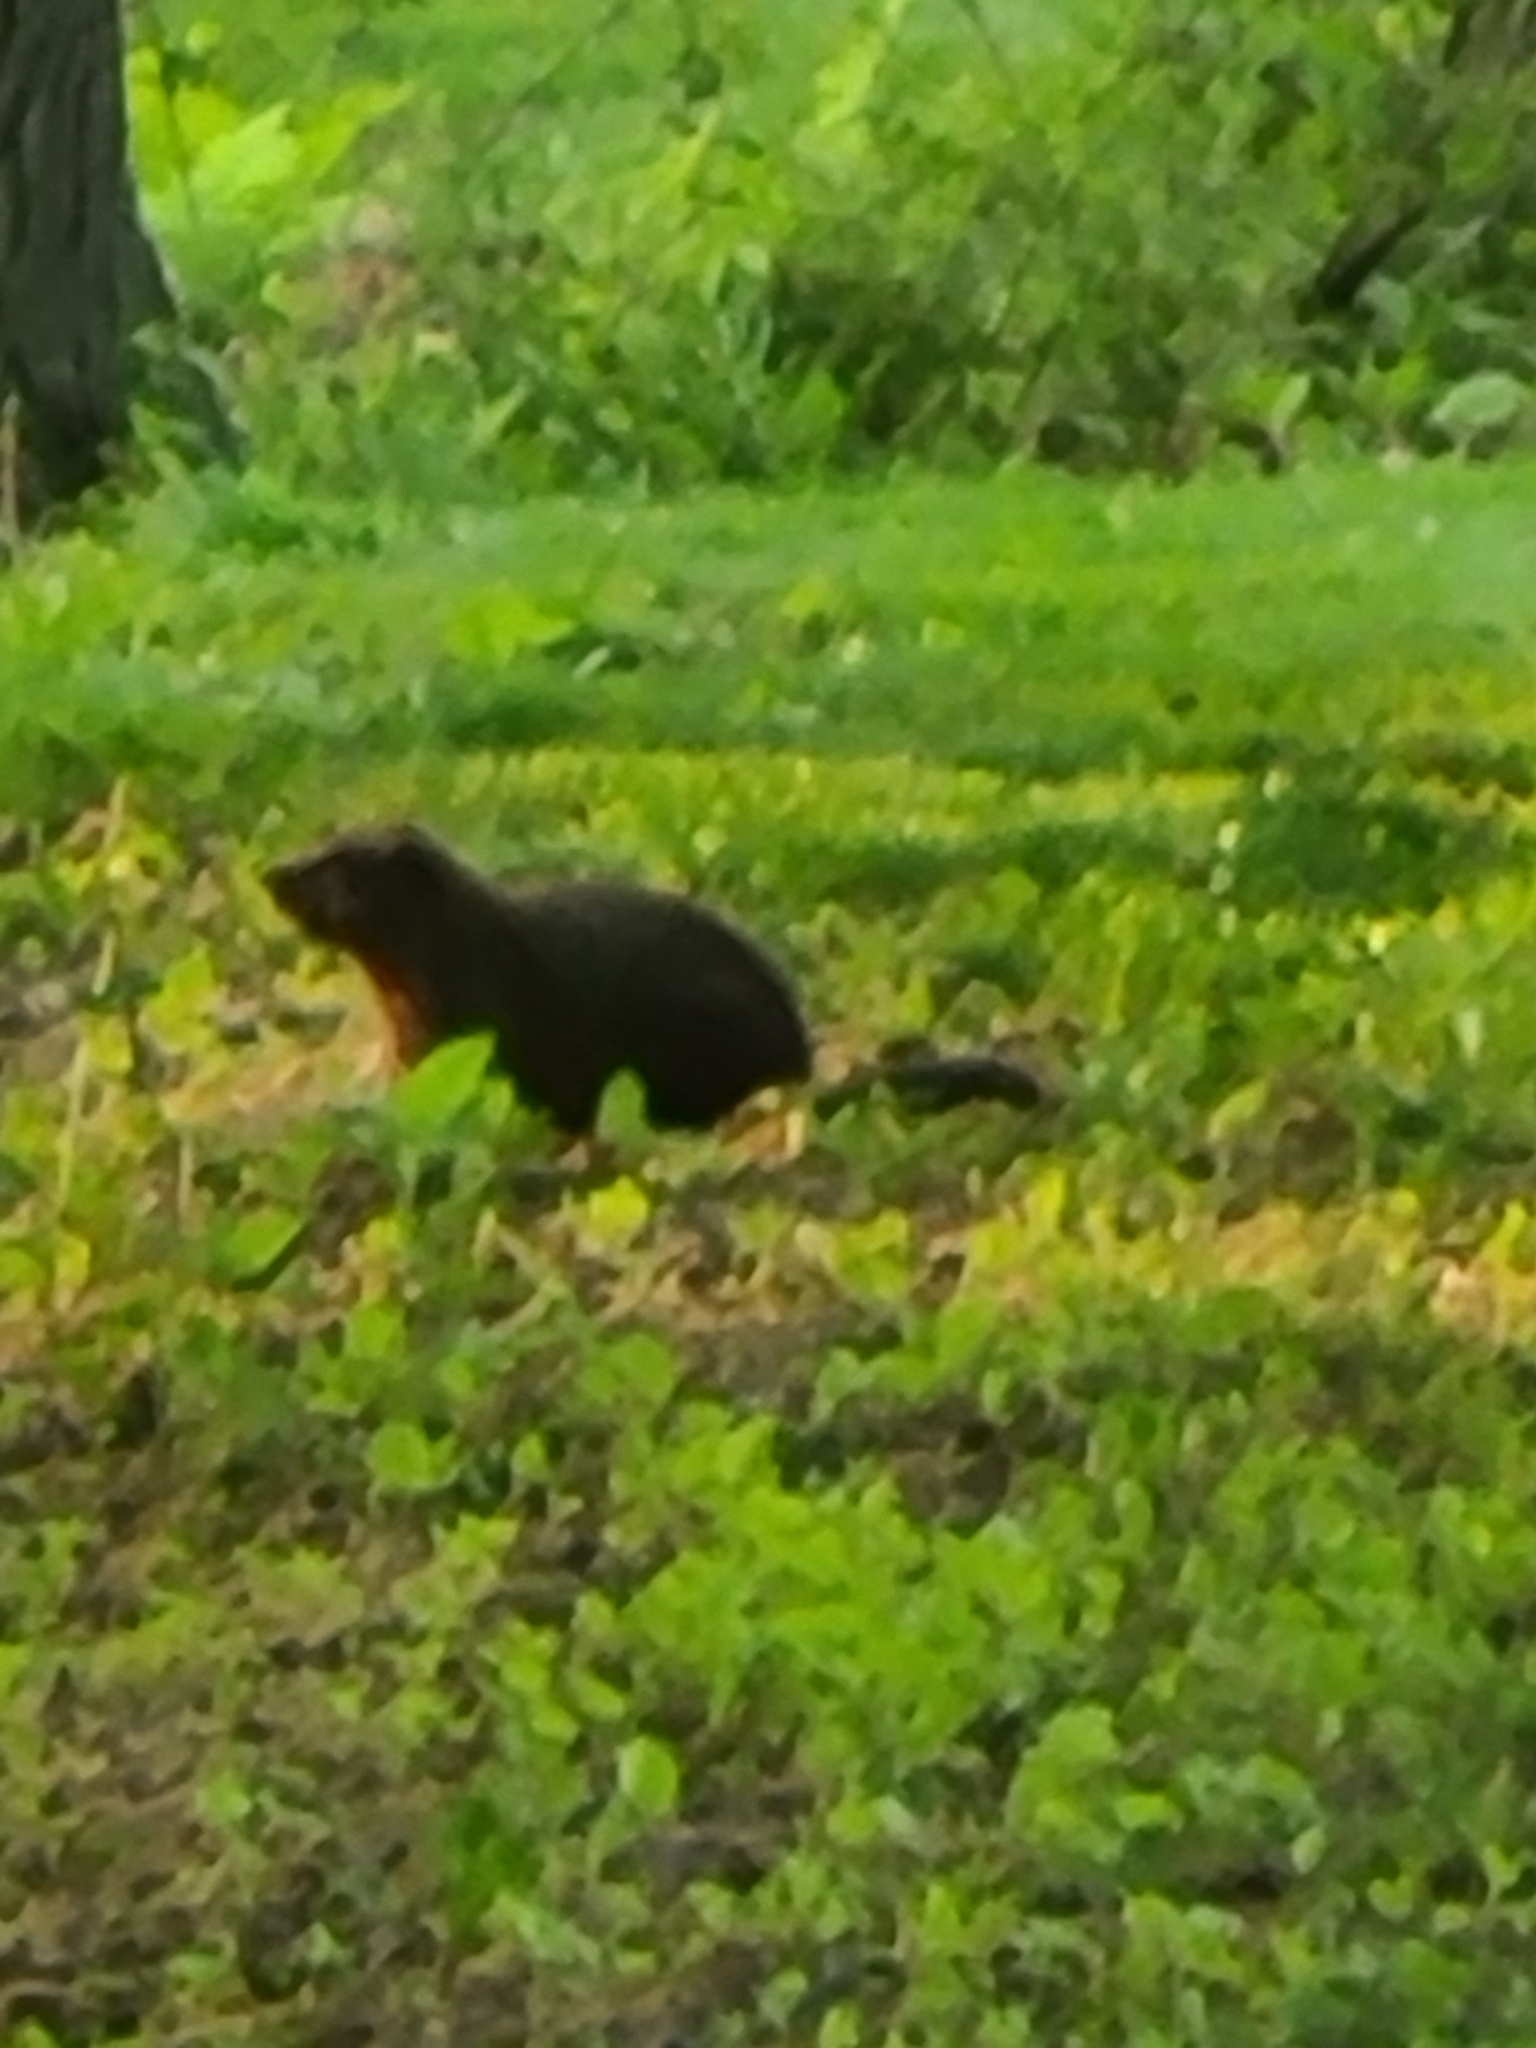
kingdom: Animalia
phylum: Chordata
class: Mammalia
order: Rodentia
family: Sciuridae
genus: Marmota
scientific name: Marmota monax
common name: Groundhog
